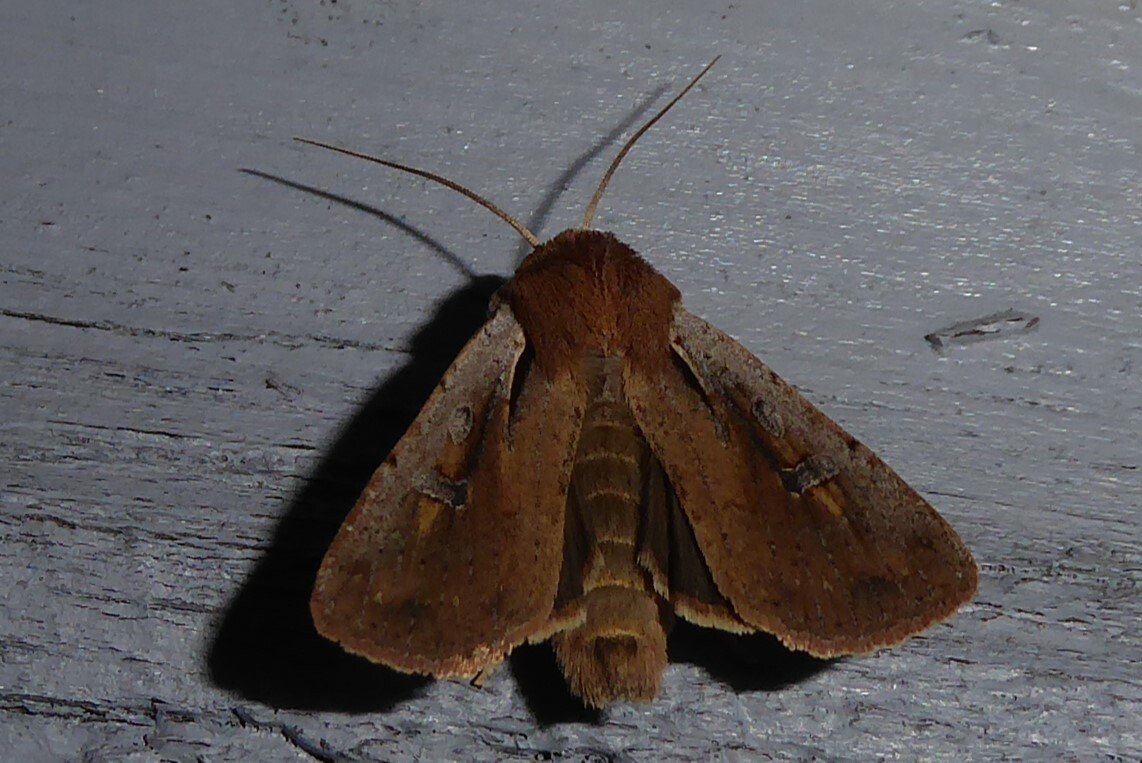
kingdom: Animalia
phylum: Arthropoda
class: Insecta
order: Lepidoptera
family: Noctuidae
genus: Ichneutica
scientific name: Ichneutica atristriga
